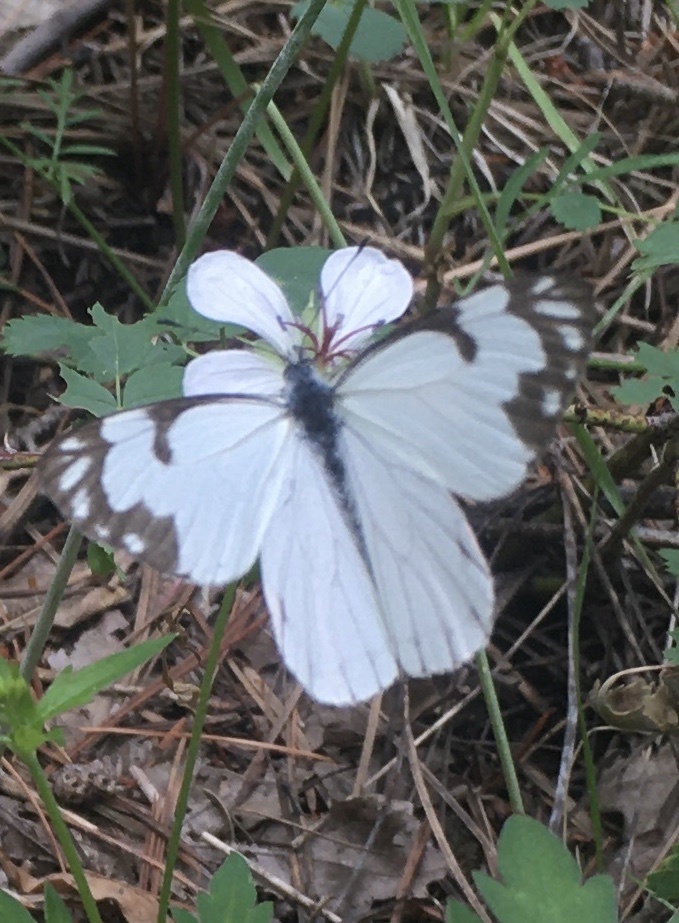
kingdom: Animalia
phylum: Arthropoda
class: Insecta
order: Lepidoptera
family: Pieridae
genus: Neophasia
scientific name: Neophasia menapia
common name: Pine white
